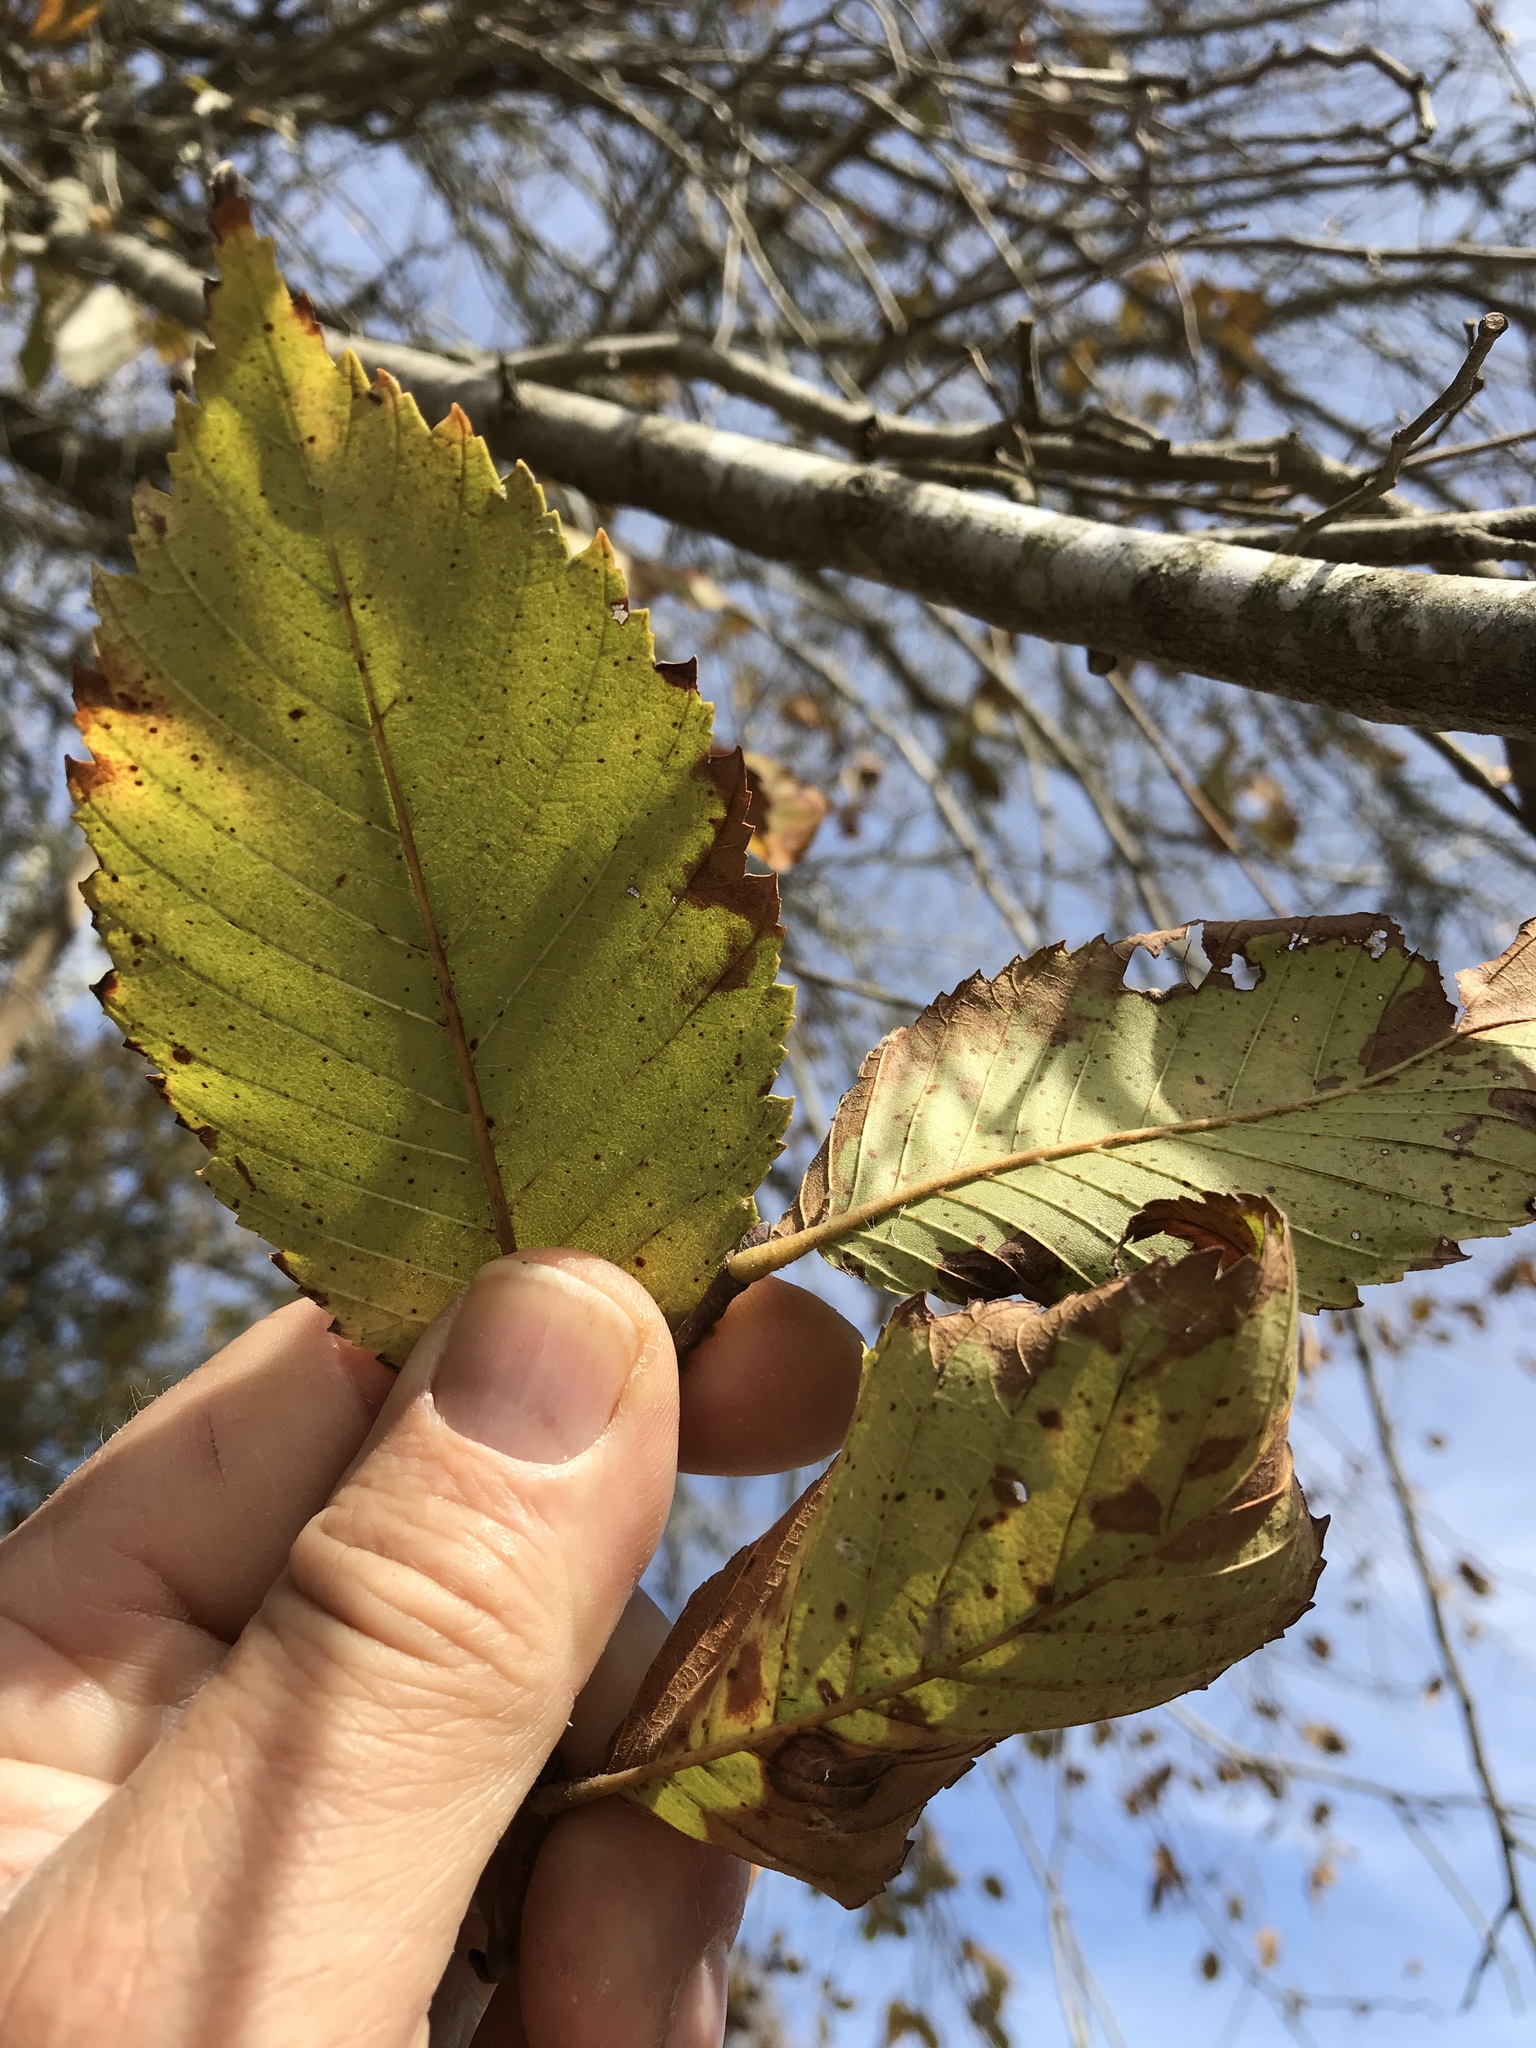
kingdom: Plantae
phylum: Tracheophyta
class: Magnoliopsida
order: Rosales
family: Ulmaceae
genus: Ulmus
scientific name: Ulmus americana
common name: American elm
